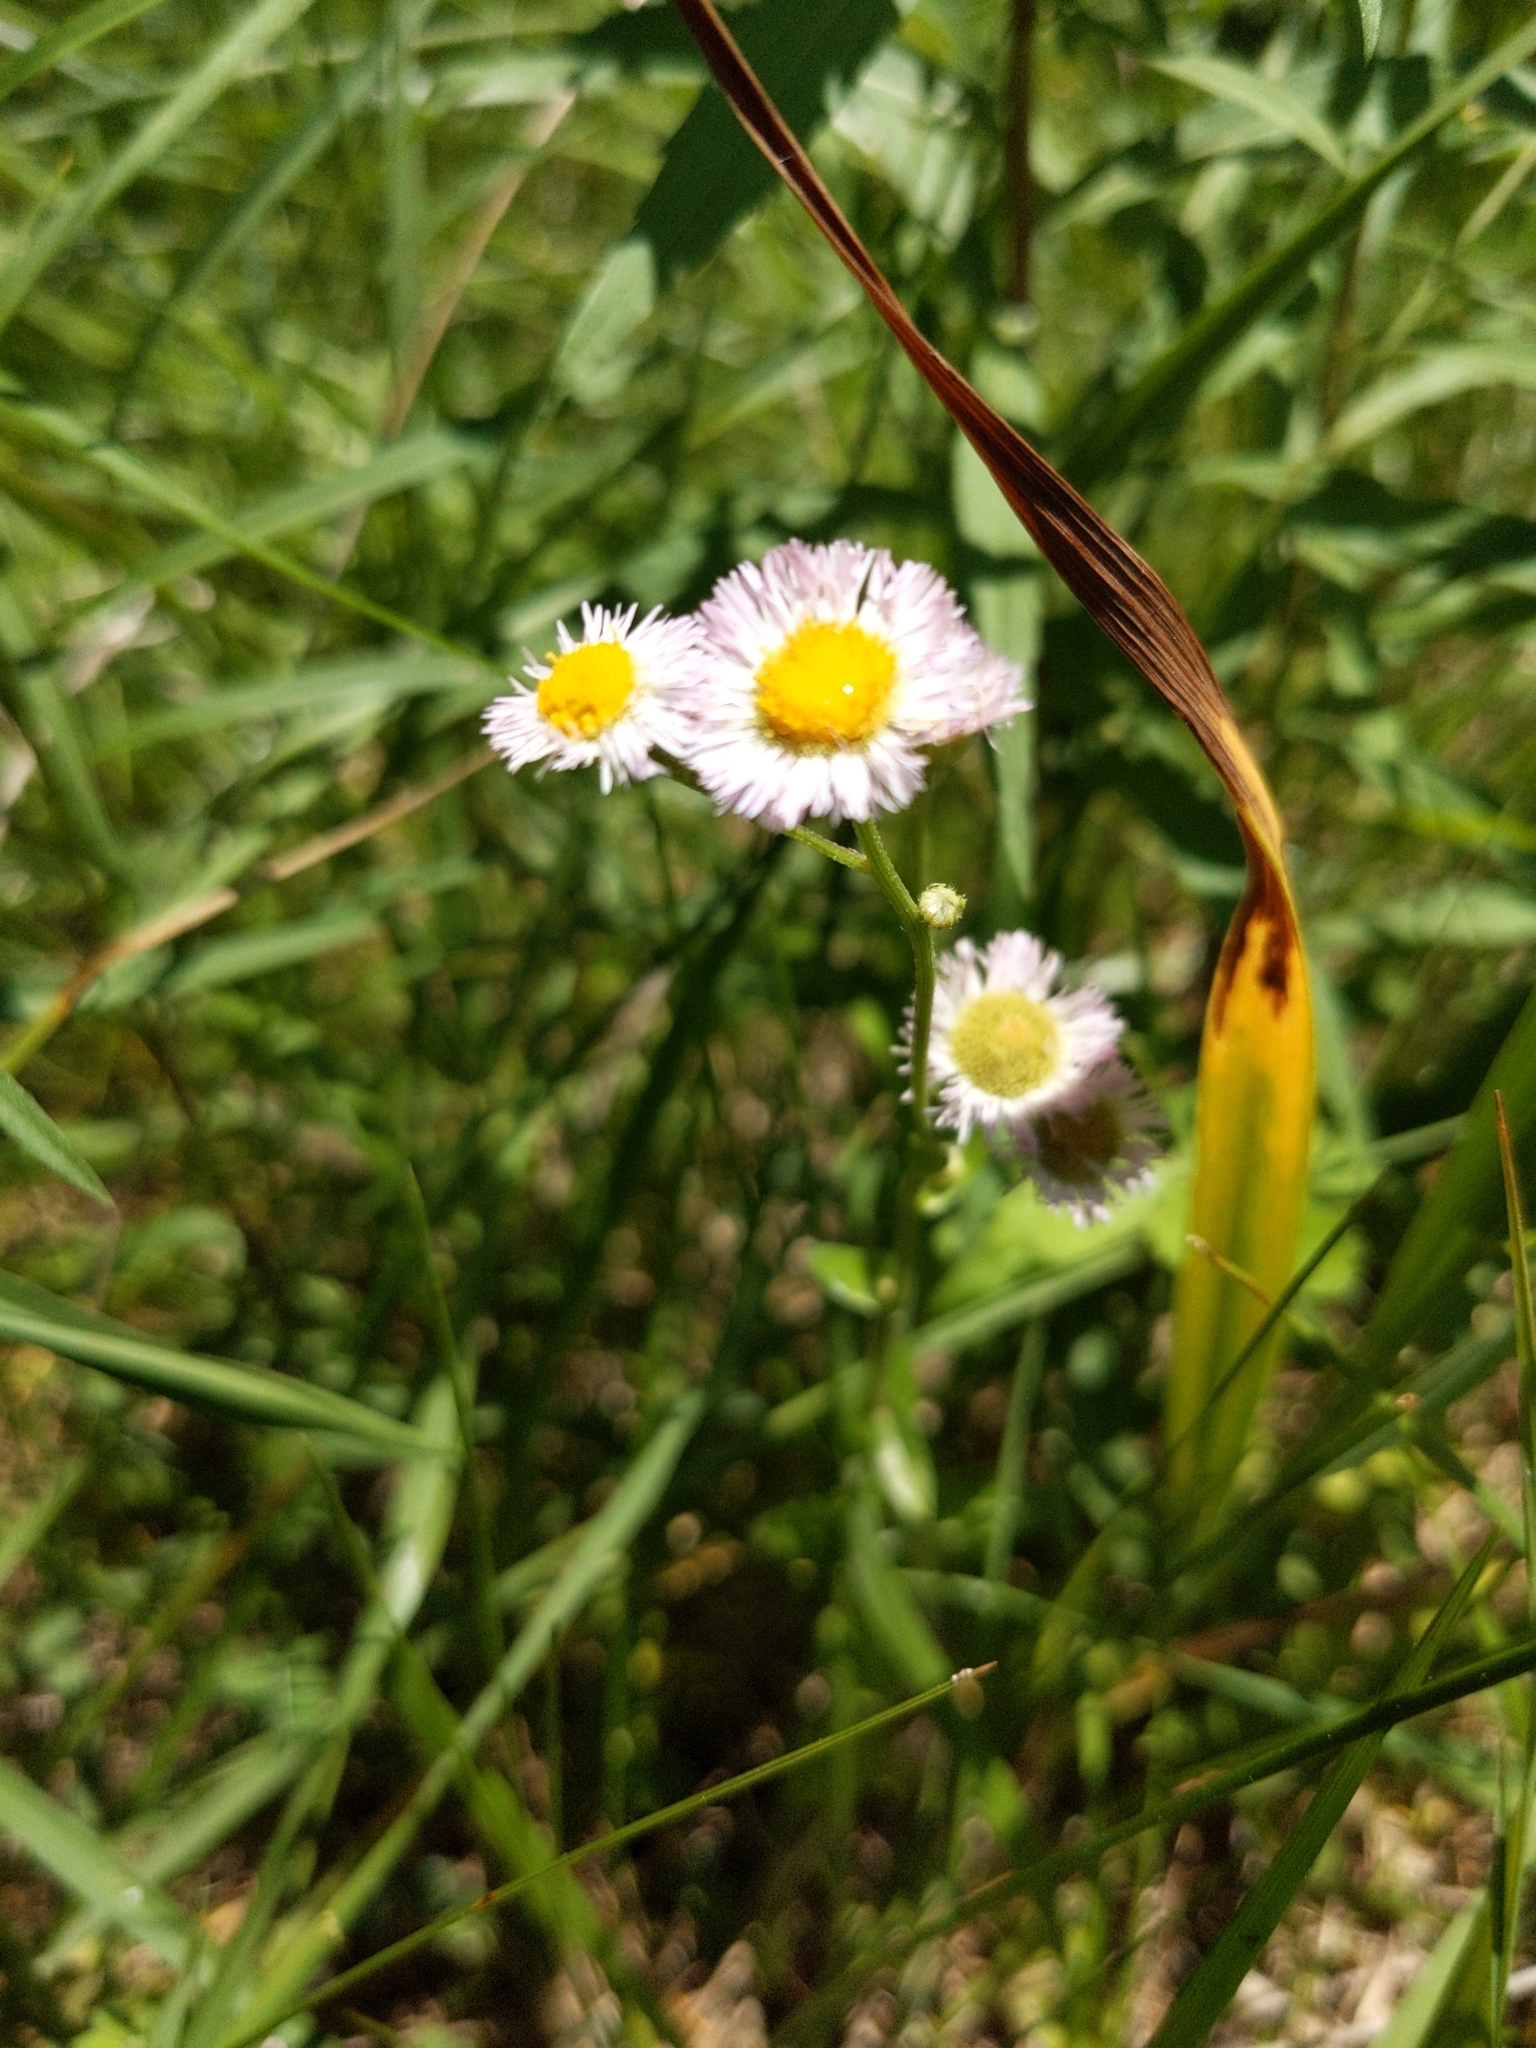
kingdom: Plantae
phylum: Tracheophyta
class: Magnoliopsida
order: Asterales
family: Asteraceae
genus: Erigeron
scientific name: Erigeron philadelphicus
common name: Robin's-plantain
